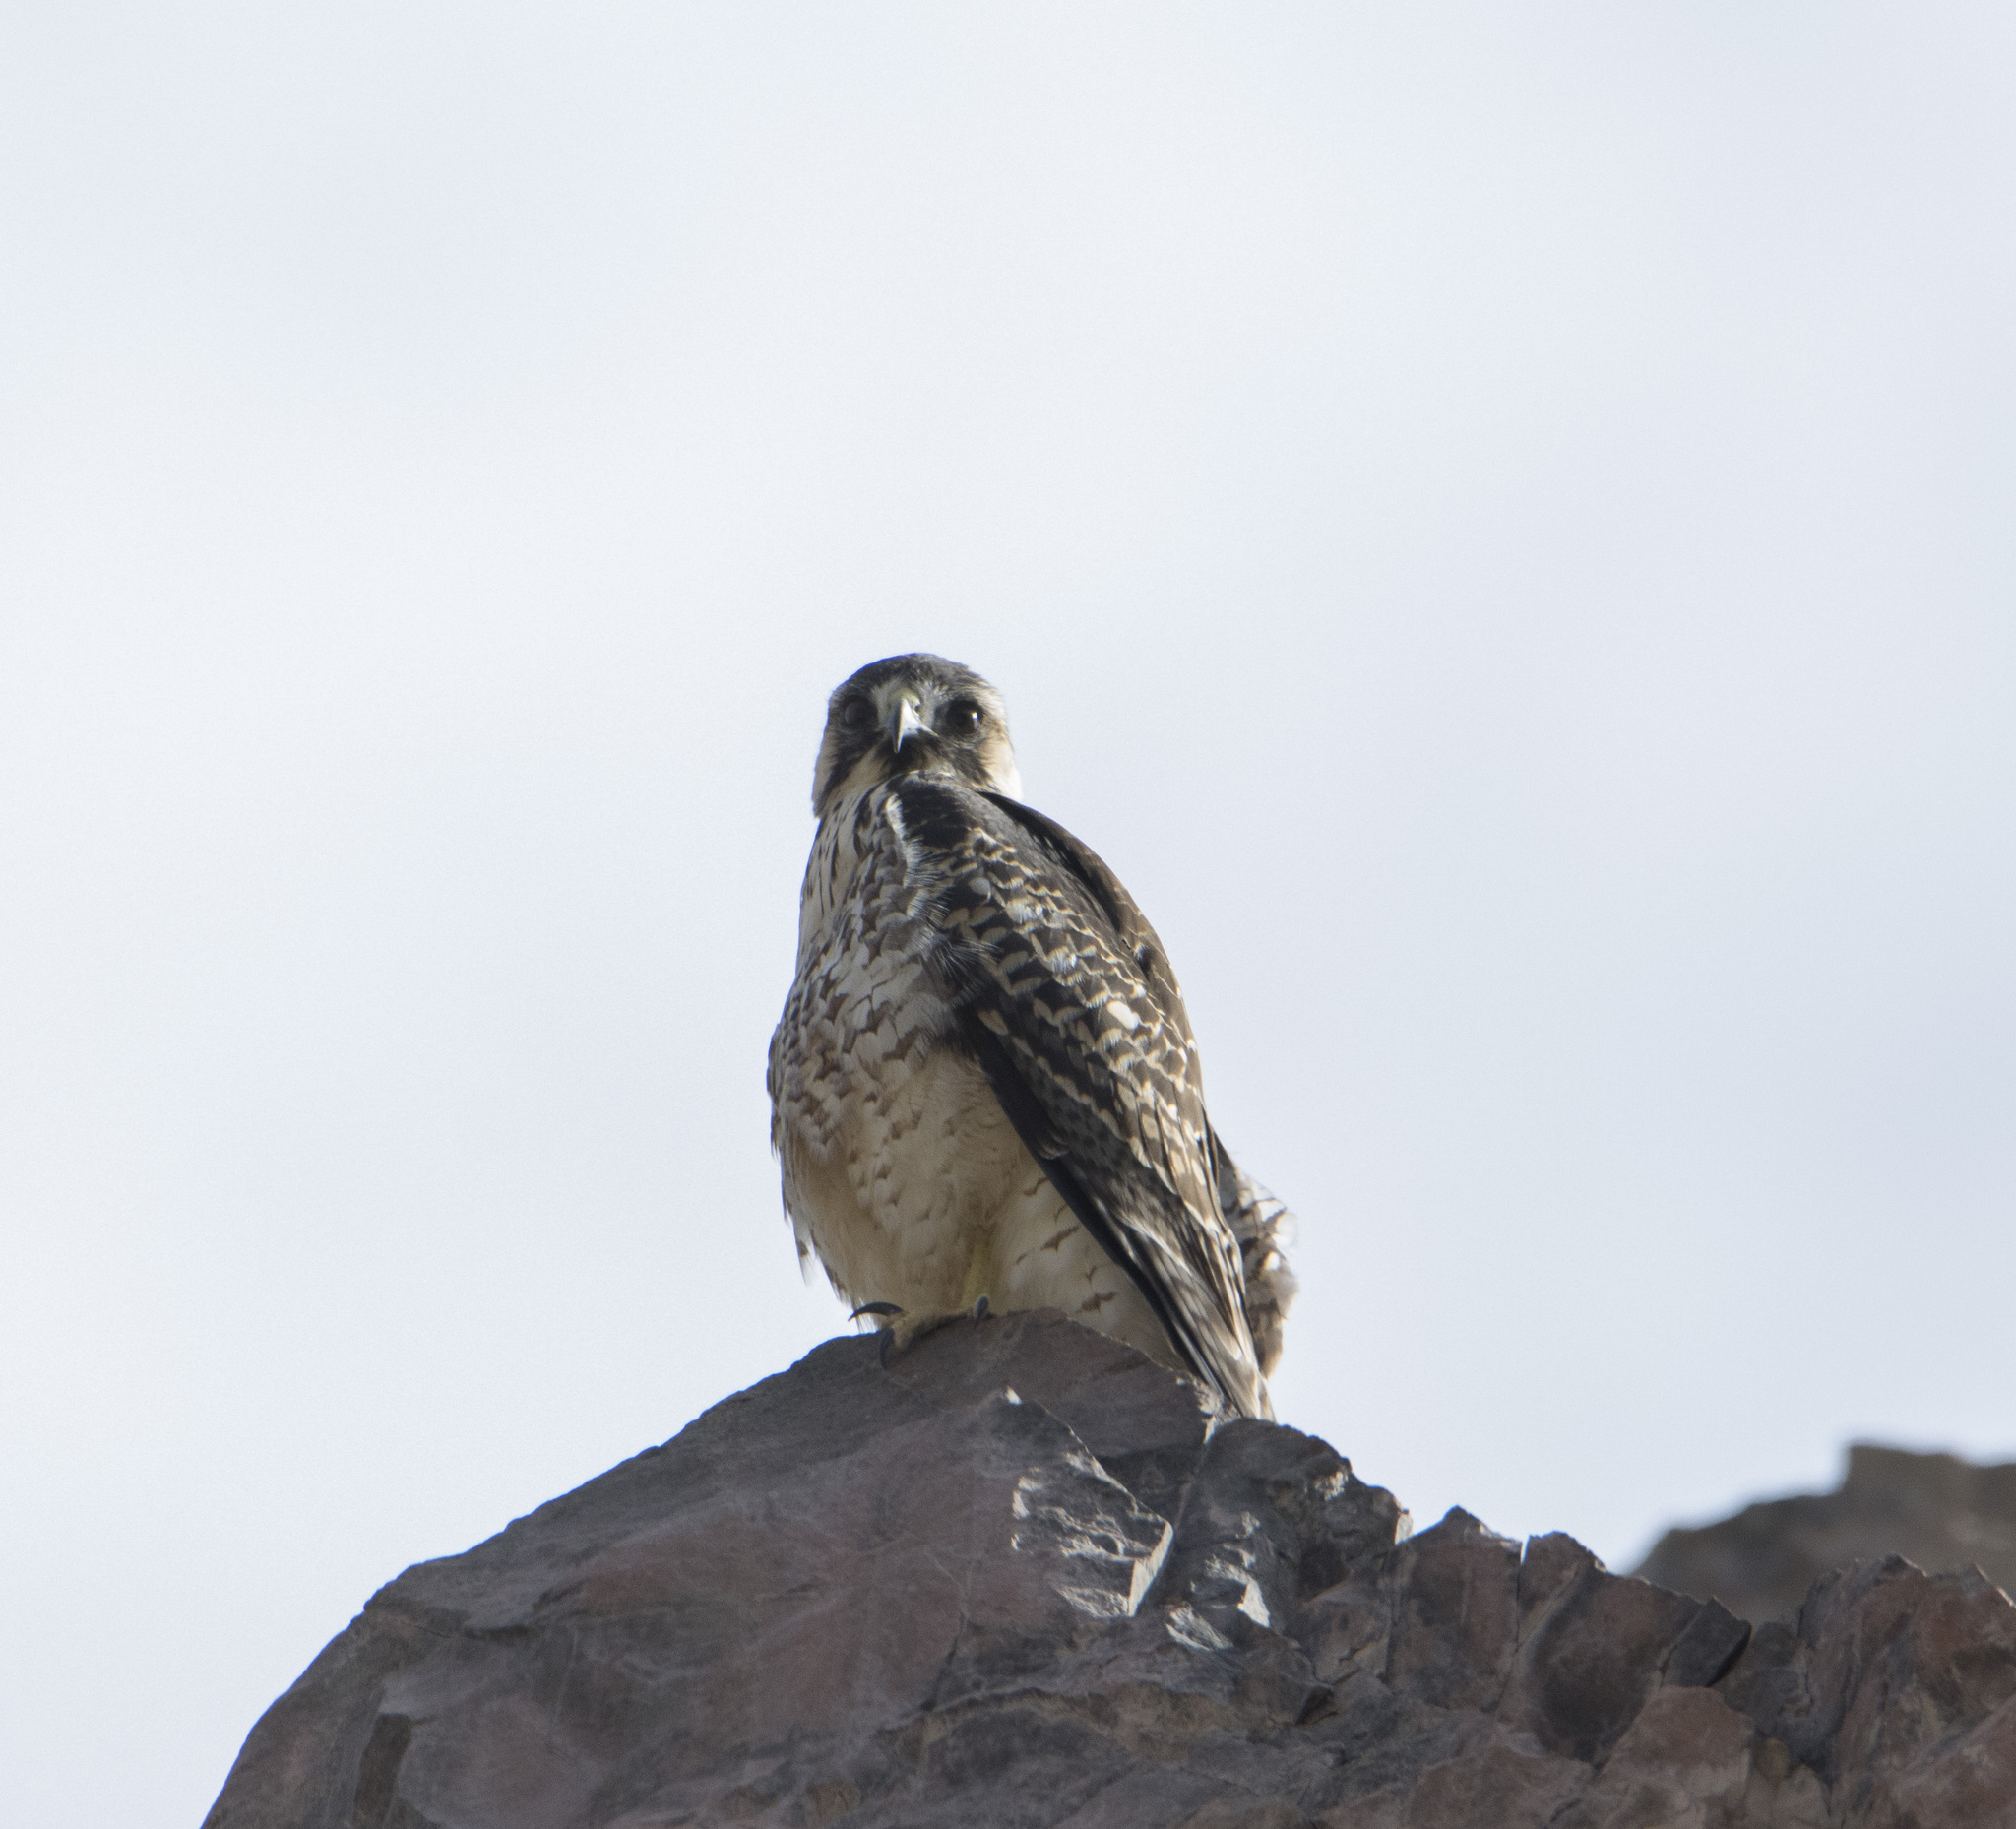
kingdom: Animalia
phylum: Chordata
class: Aves
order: Accipitriformes
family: Accipitridae
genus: Buteo
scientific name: Buteo polyosoma
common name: Variable hawk
